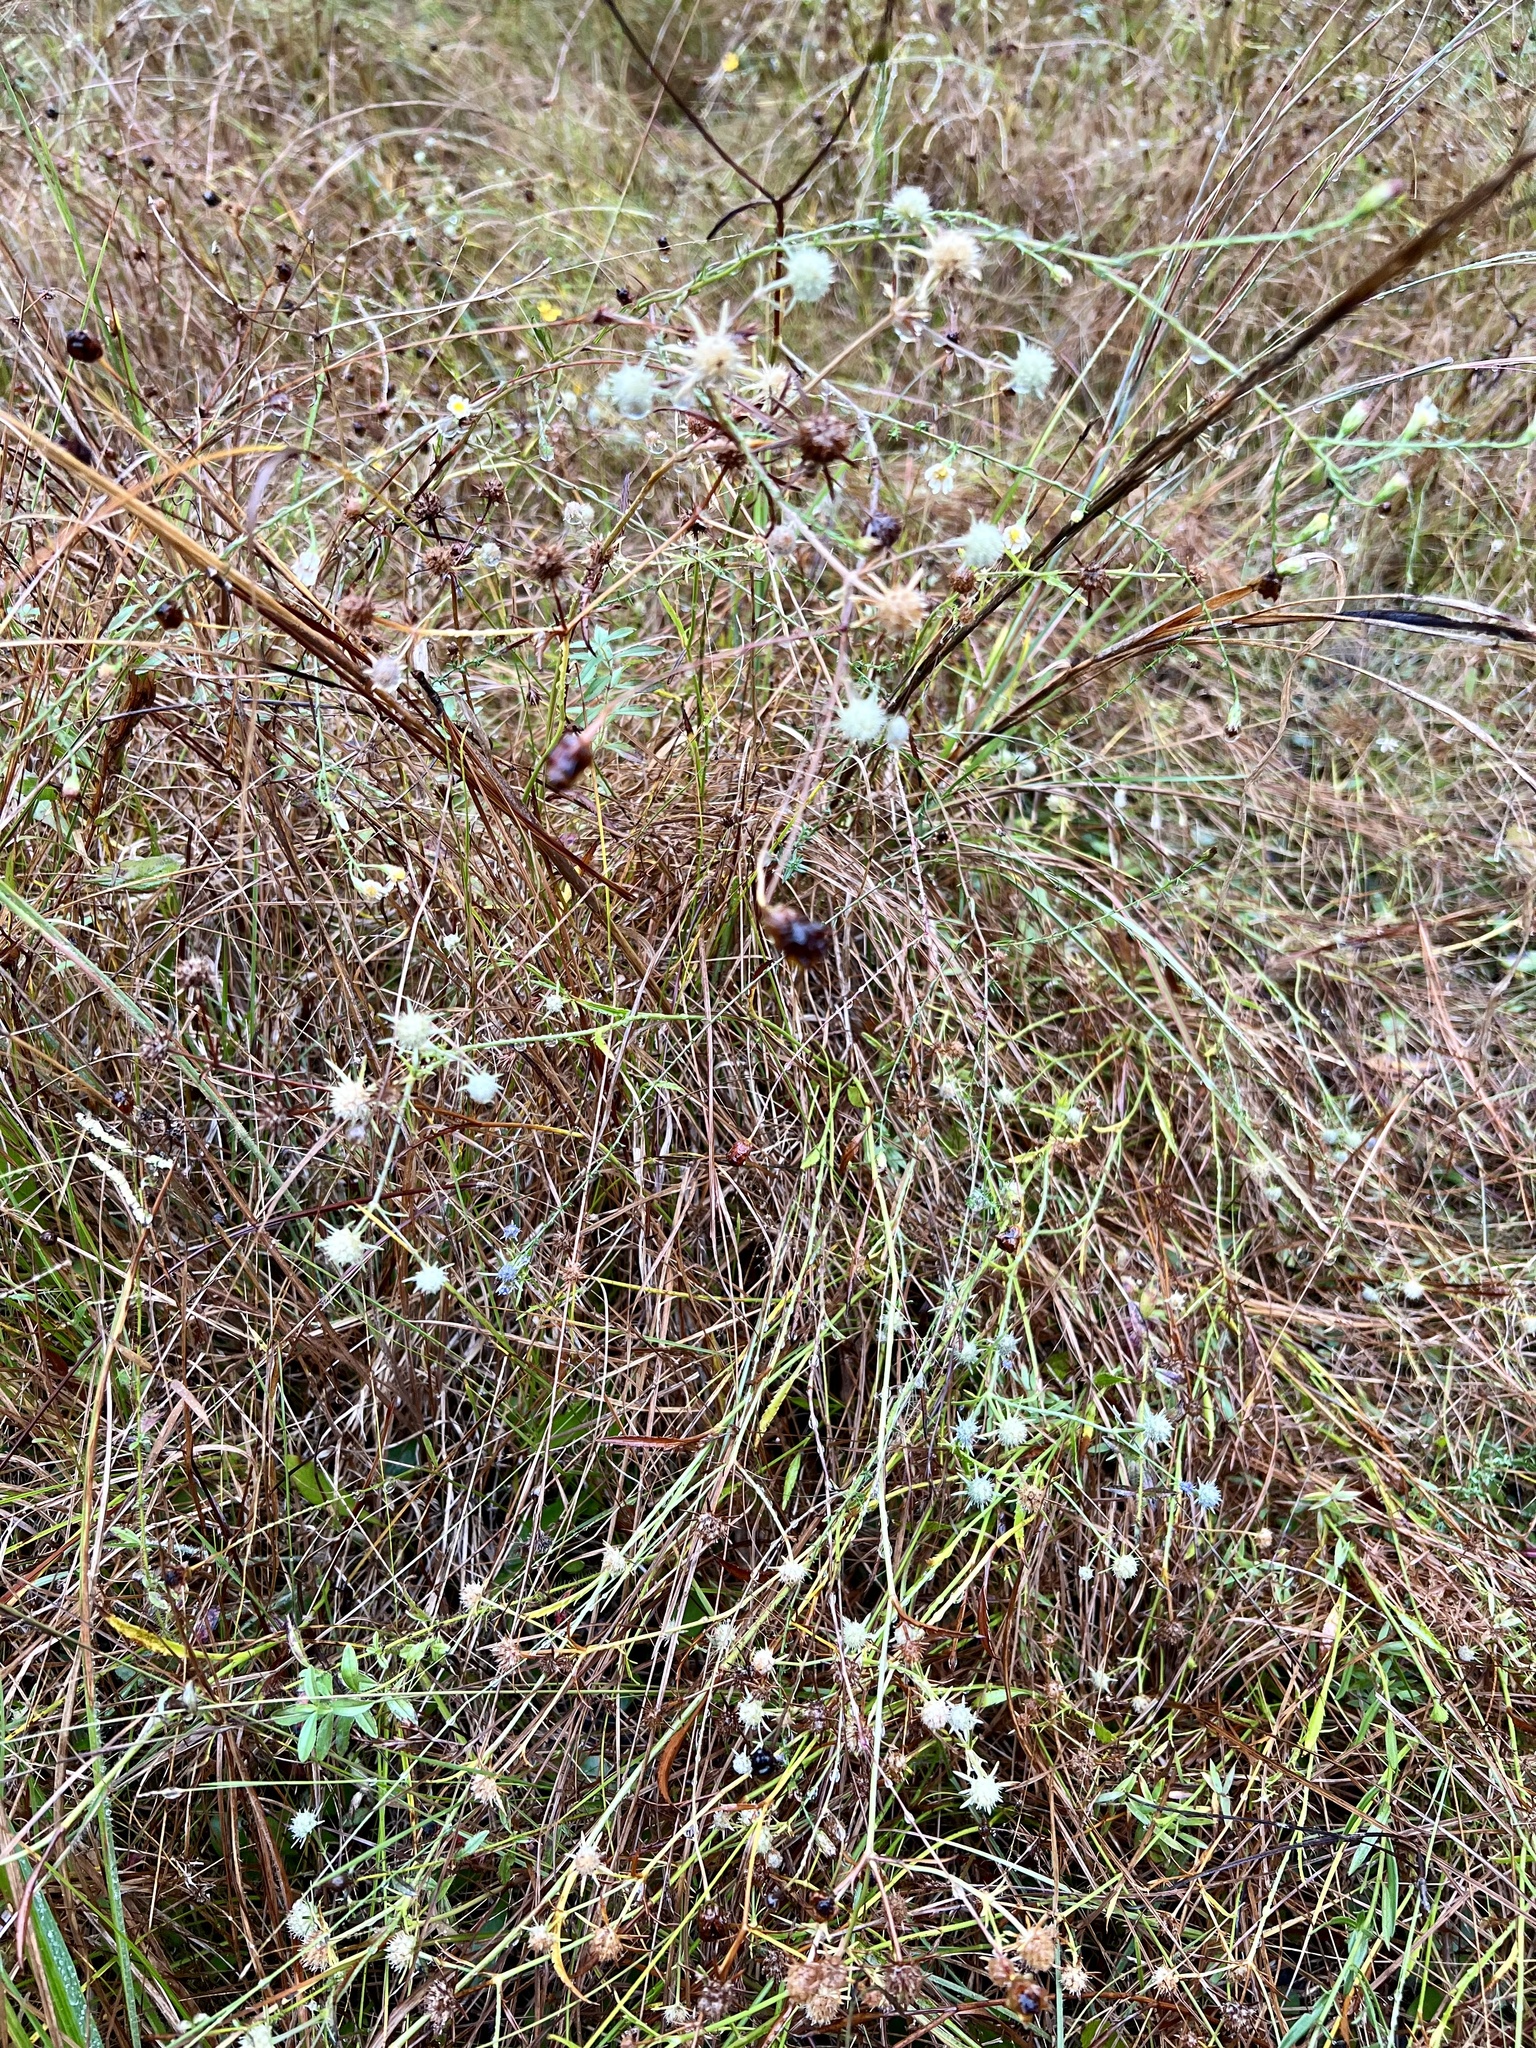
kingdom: Plantae
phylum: Tracheophyta
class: Magnoliopsida
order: Apiales
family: Apiaceae
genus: Eryngium
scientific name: Eryngium integrifolium
